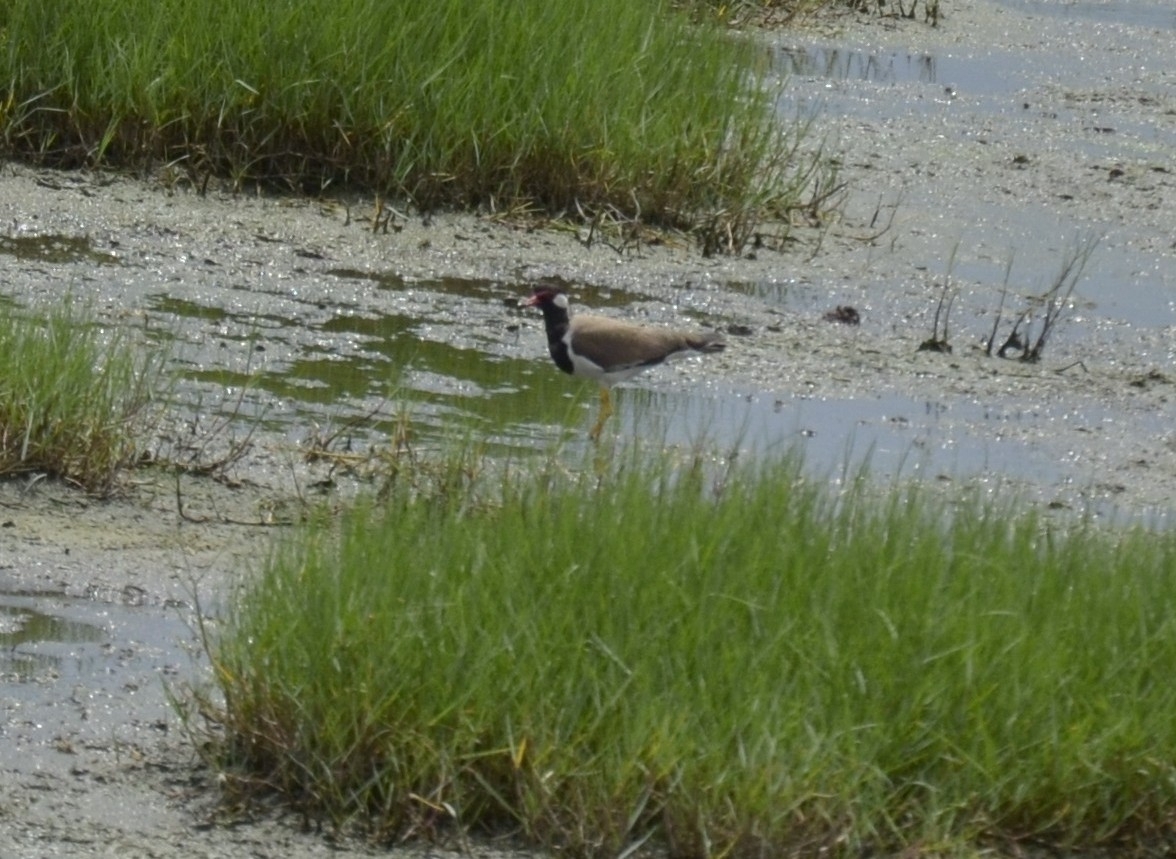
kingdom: Animalia
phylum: Chordata
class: Aves
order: Charadriiformes
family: Charadriidae
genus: Vanellus
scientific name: Vanellus indicus
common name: Red-wattled lapwing
